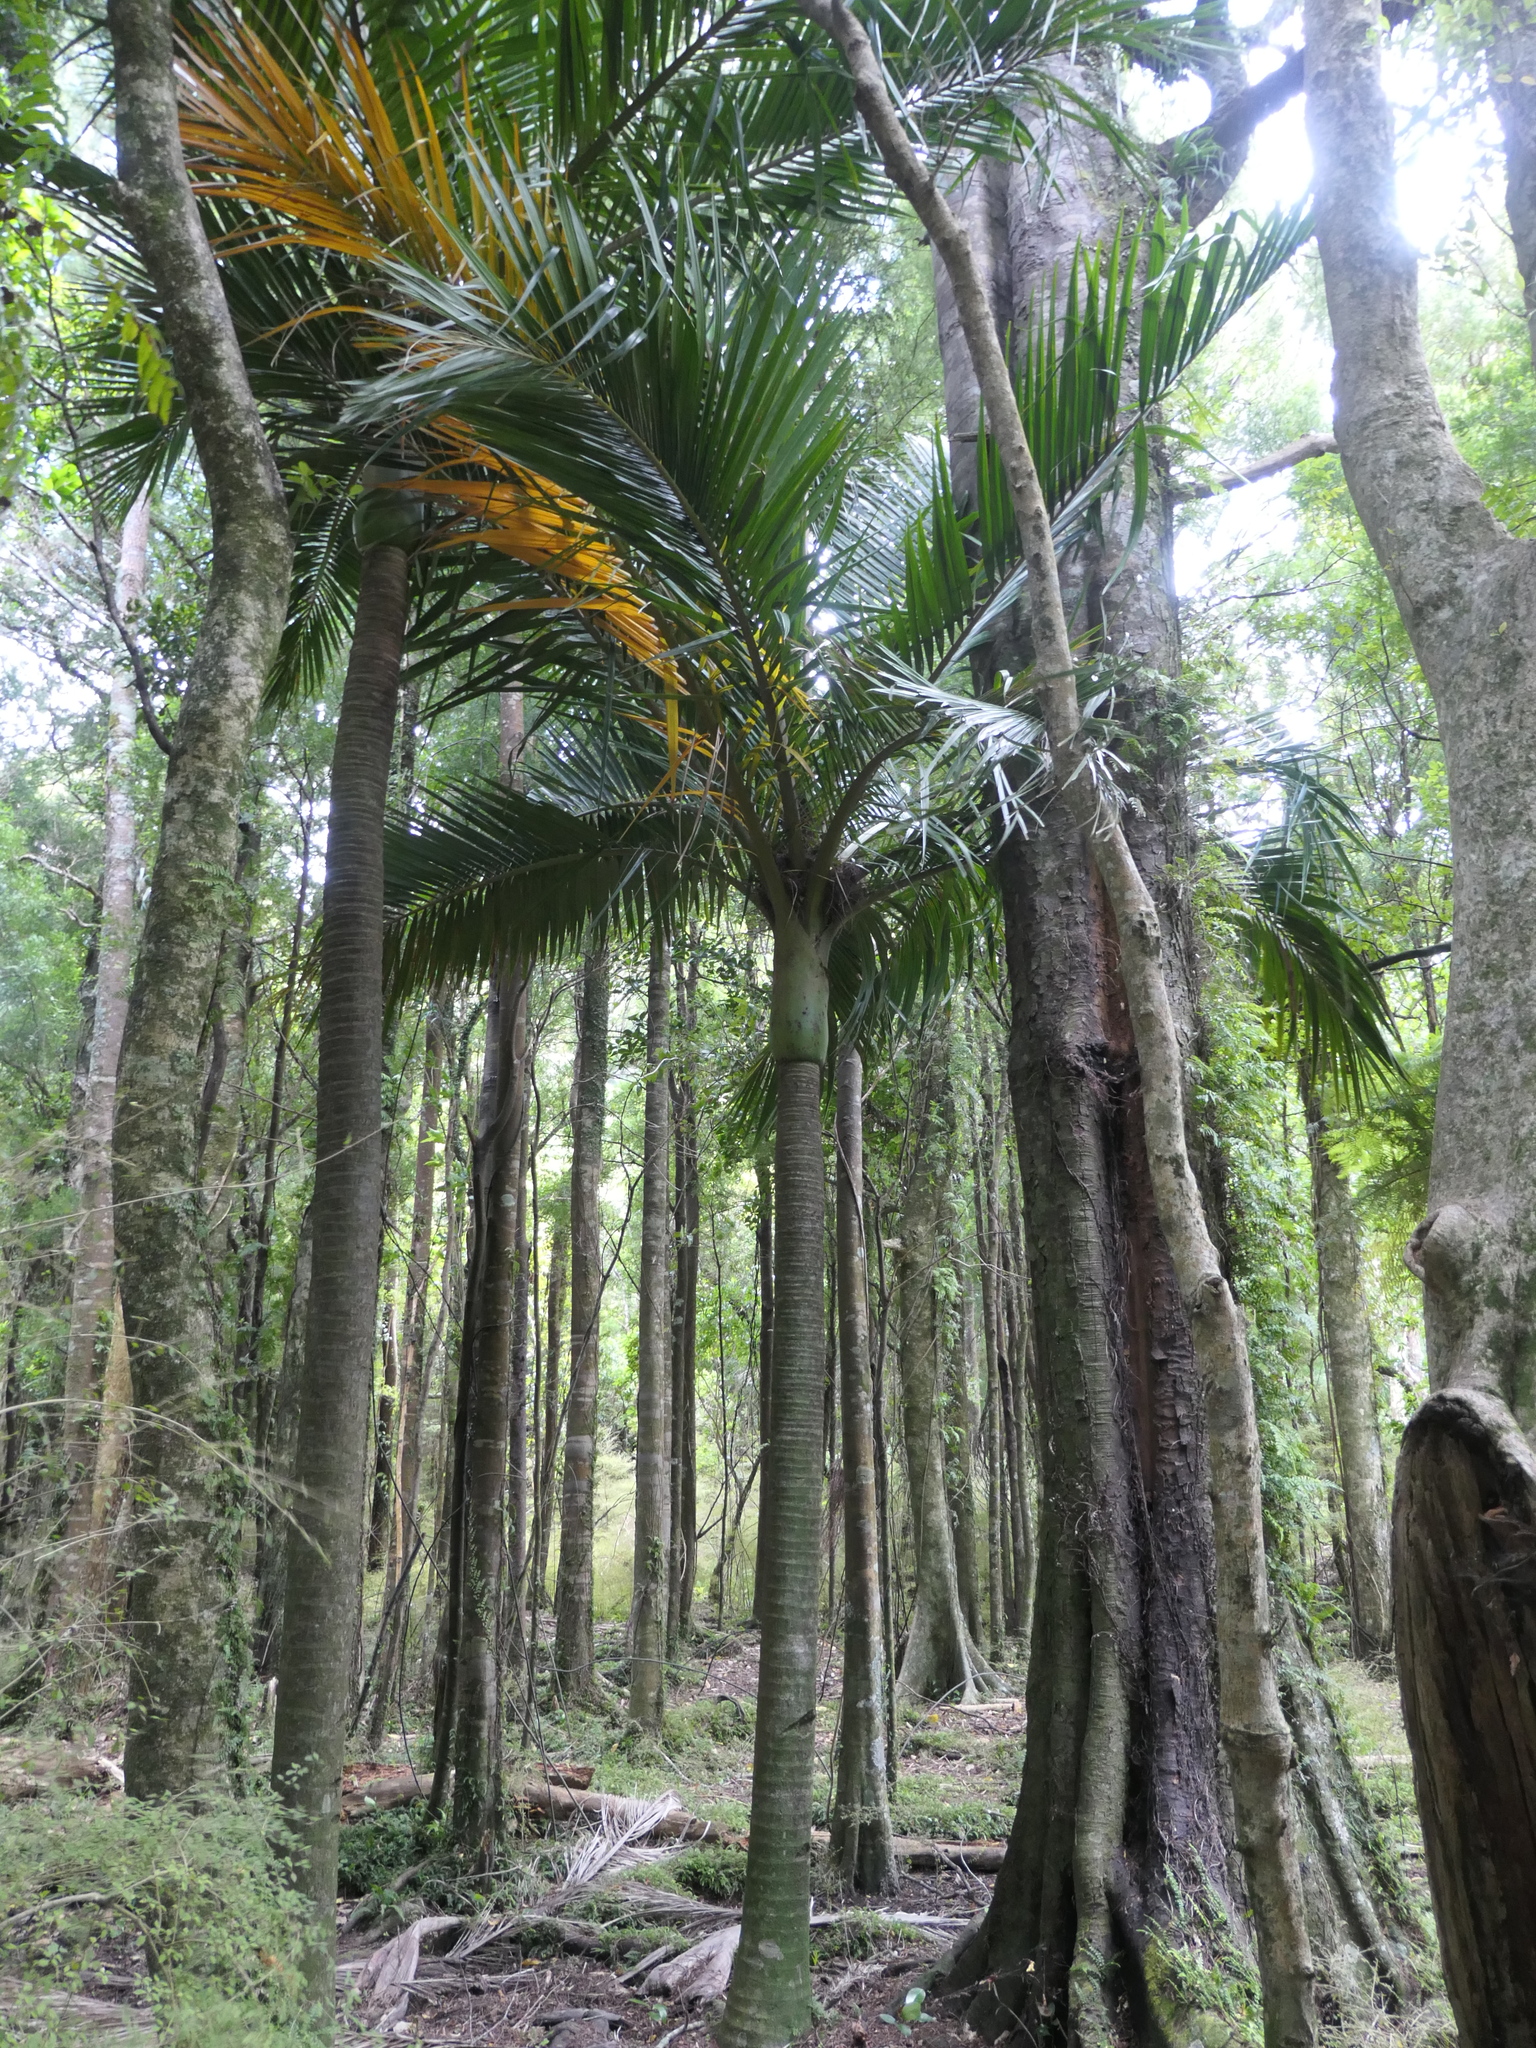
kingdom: Plantae
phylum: Tracheophyta
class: Liliopsida
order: Arecales
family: Arecaceae
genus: Rhopalostylis
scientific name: Rhopalostylis sapida
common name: Feather-duster palm
